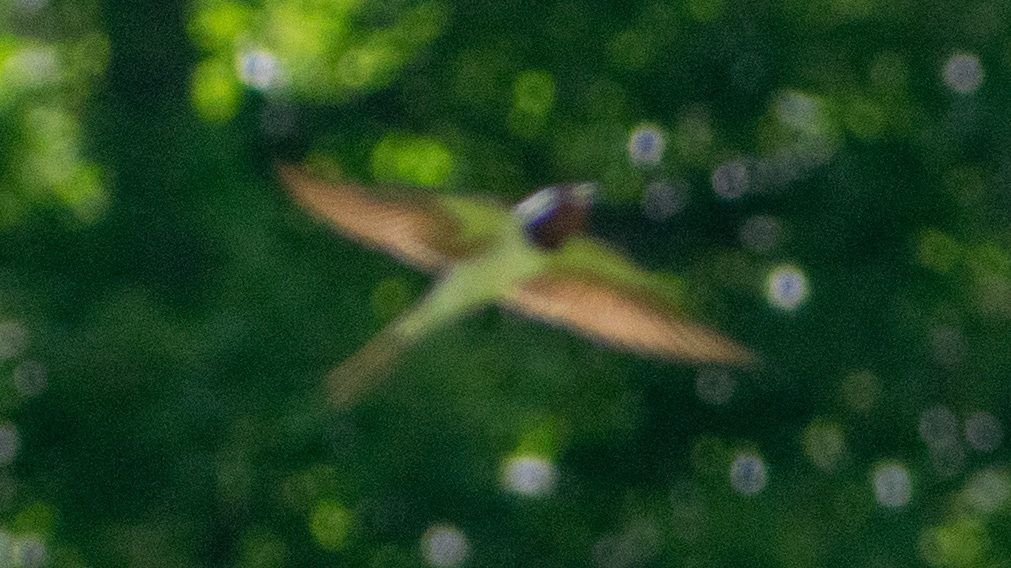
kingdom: Animalia
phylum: Chordata
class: Aves
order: Passeriformes
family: Hirundinidae
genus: Hirundo
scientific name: Hirundo rustica
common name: Barn swallow
